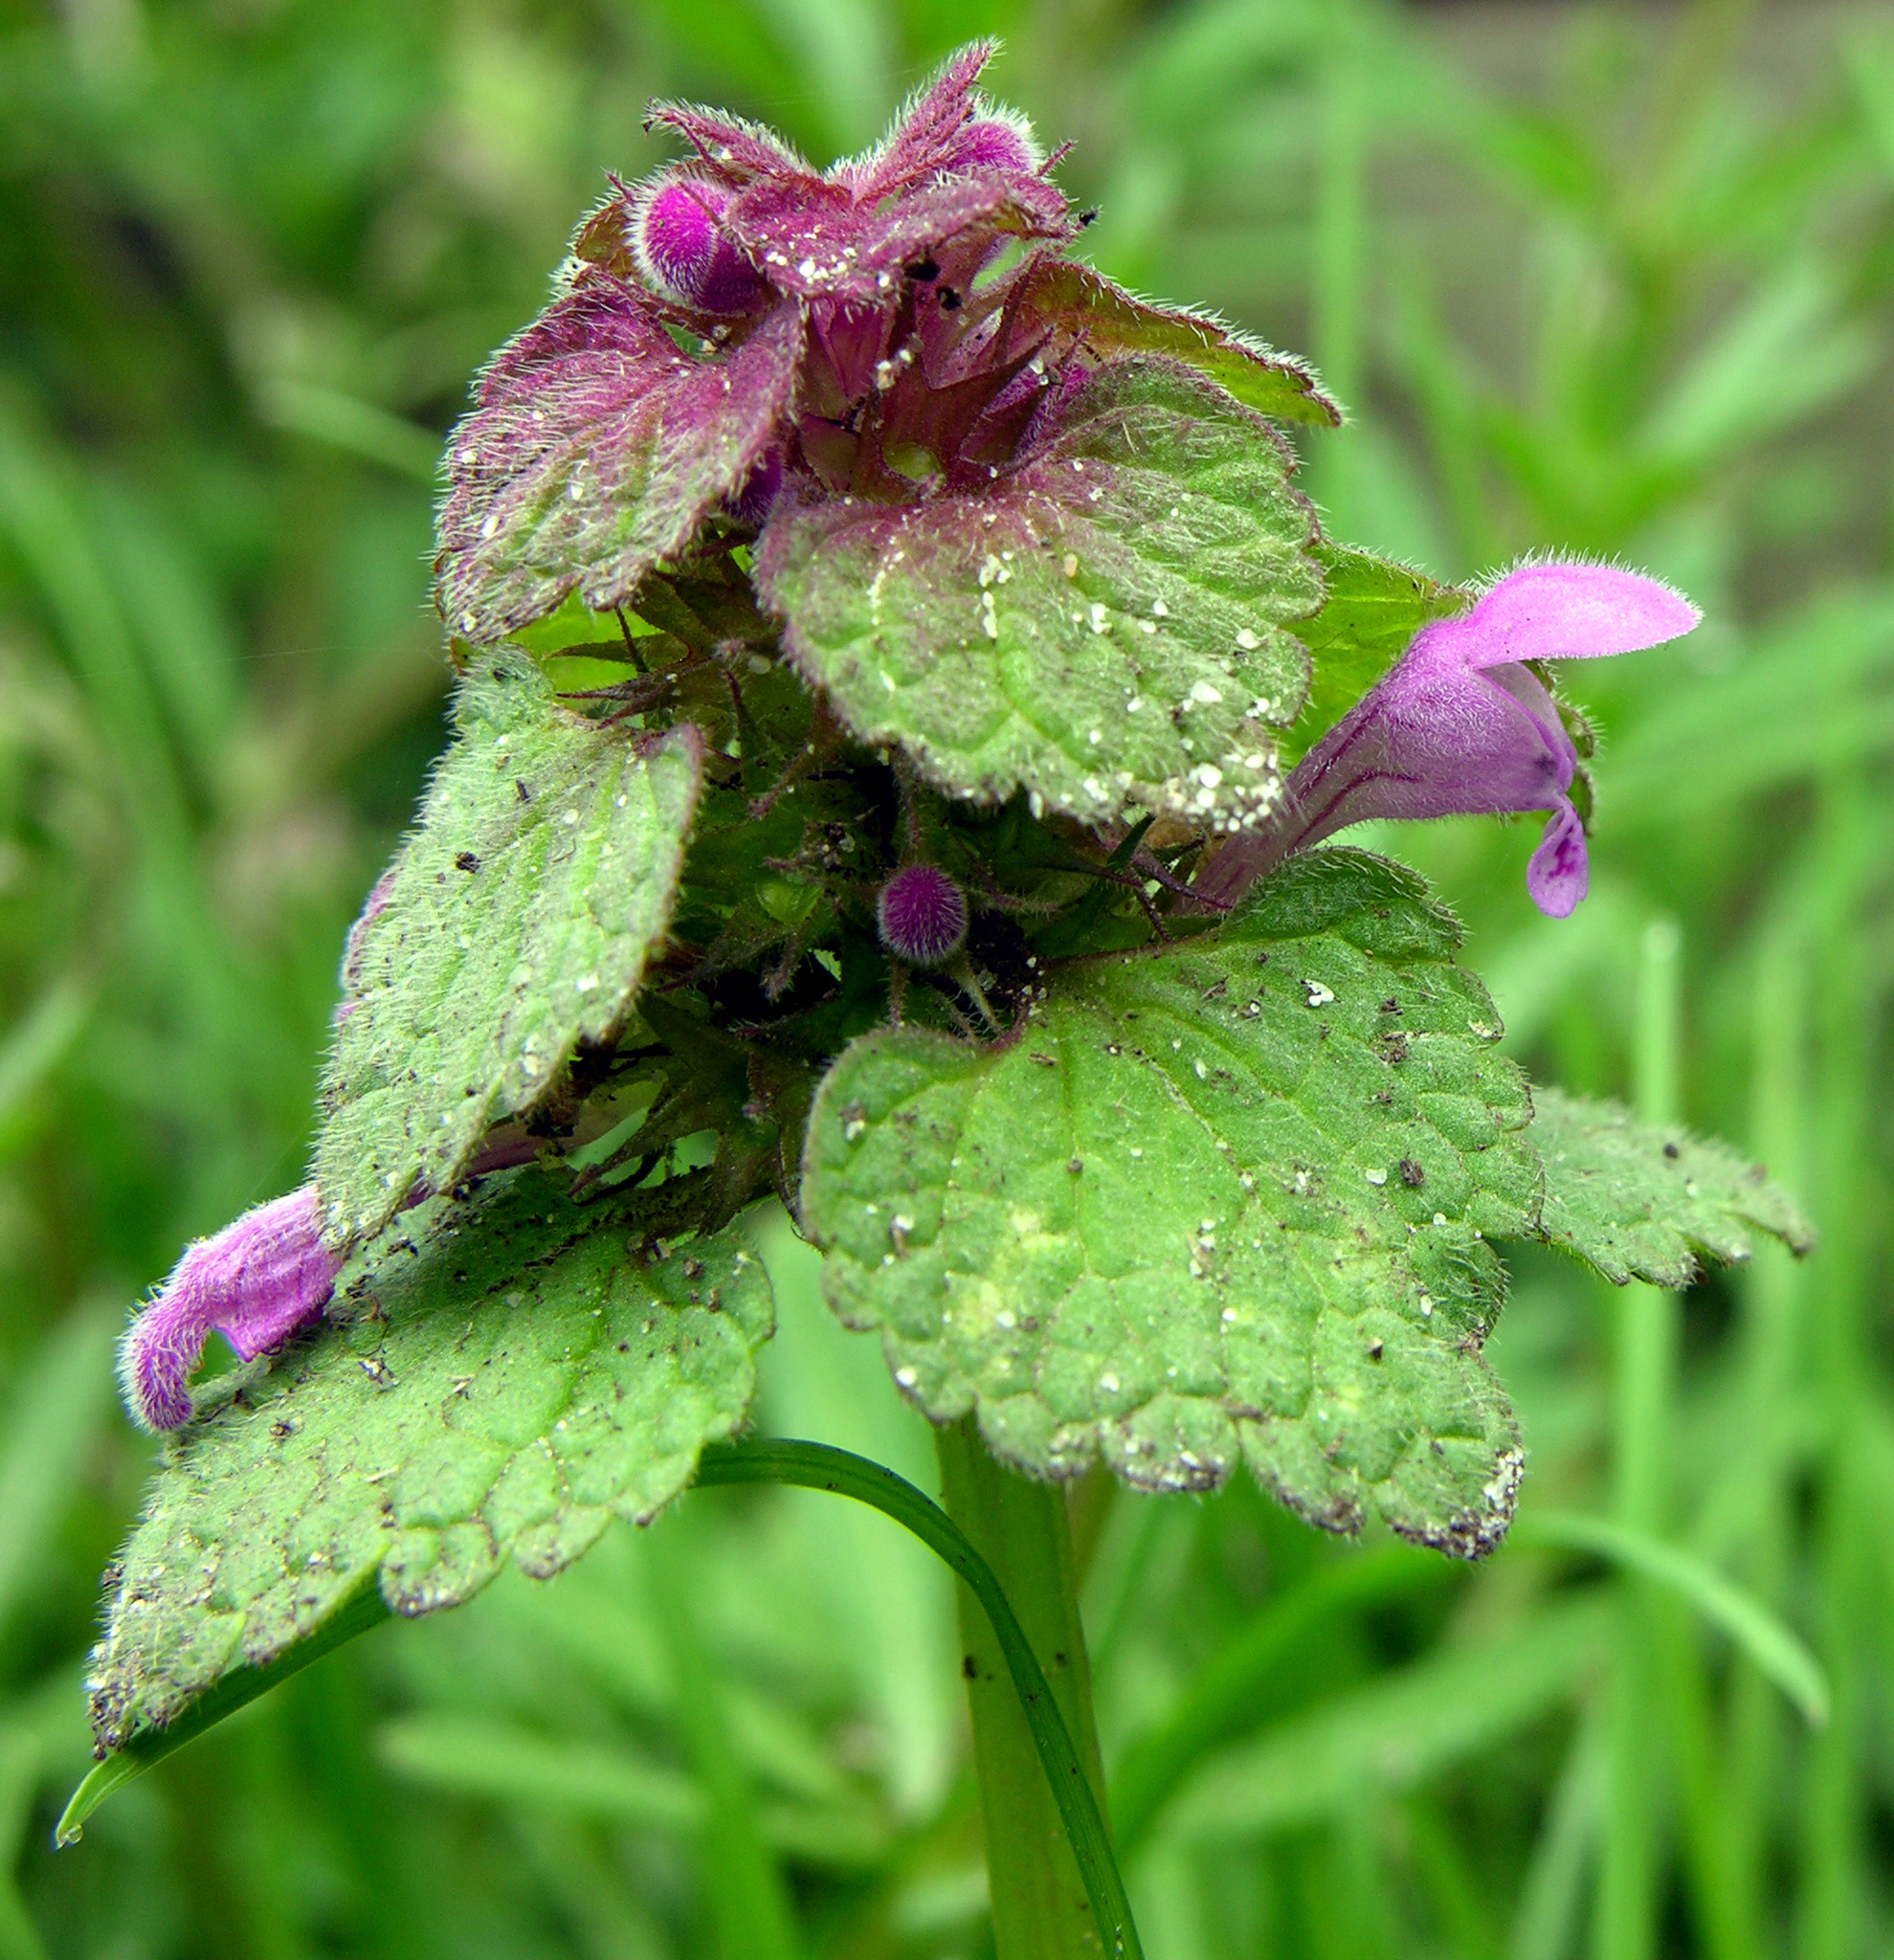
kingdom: Plantae
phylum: Tracheophyta
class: Magnoliopsida
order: Lamiales
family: Lamiaceae
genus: Lamium
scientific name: Lamium purpureum
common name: Red dead-nettle
